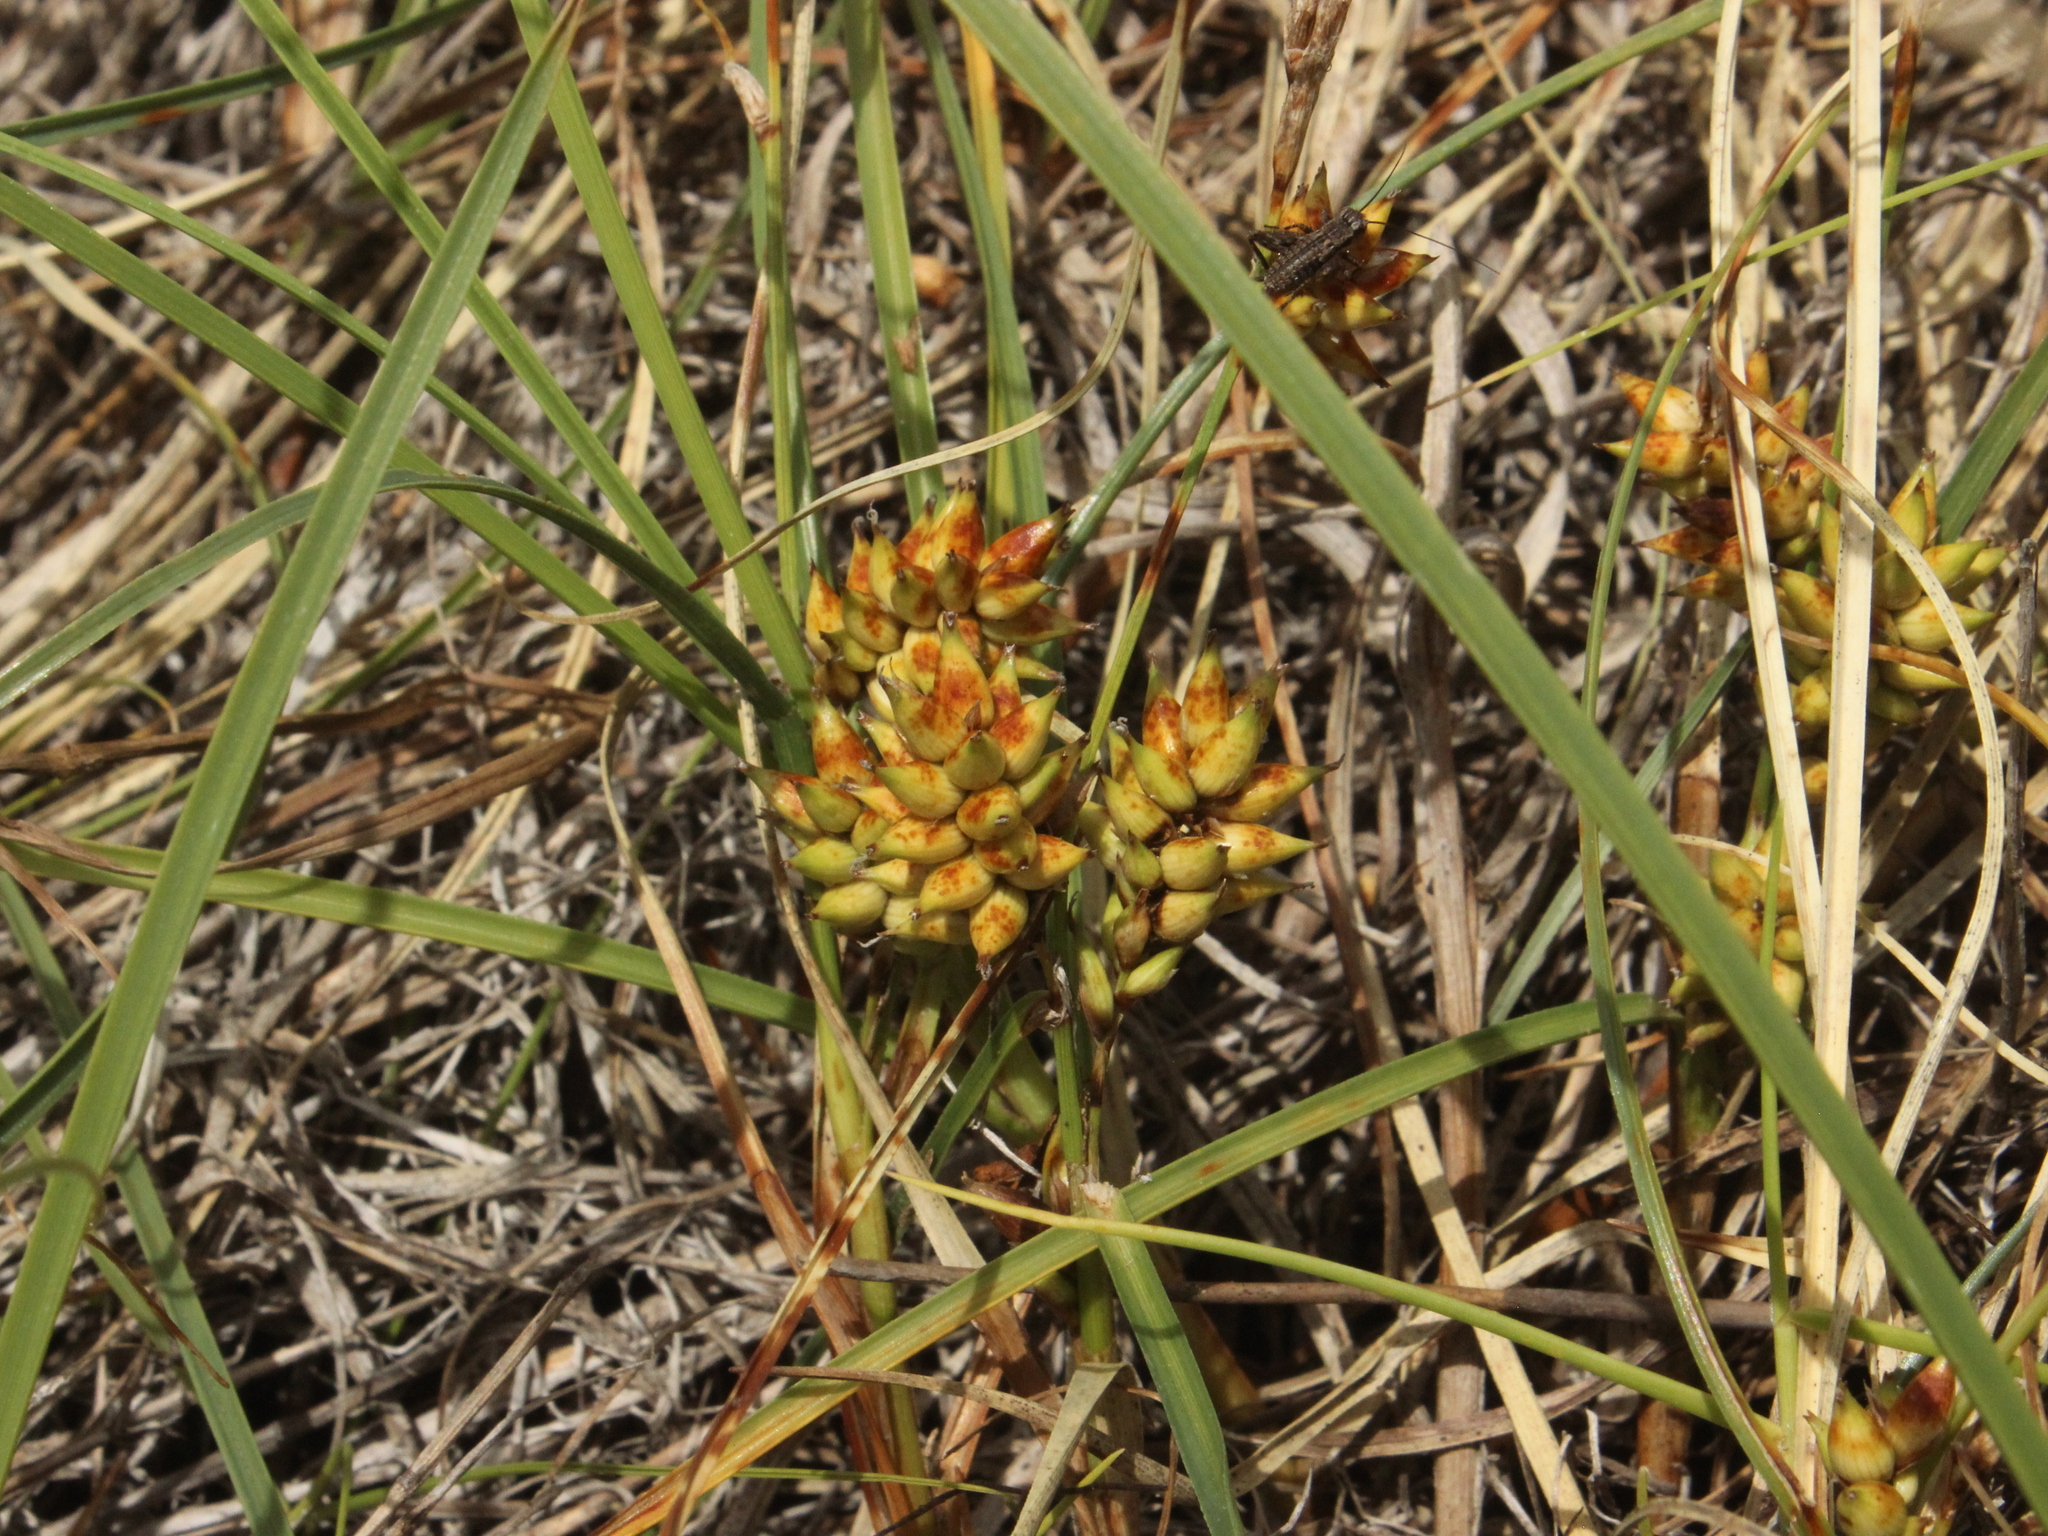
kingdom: Plantae
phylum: Tracheophyta
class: Liliopsida
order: Poales
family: Cyperaceae
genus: Carex
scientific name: Carex pumila
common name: Dwarf sedge
